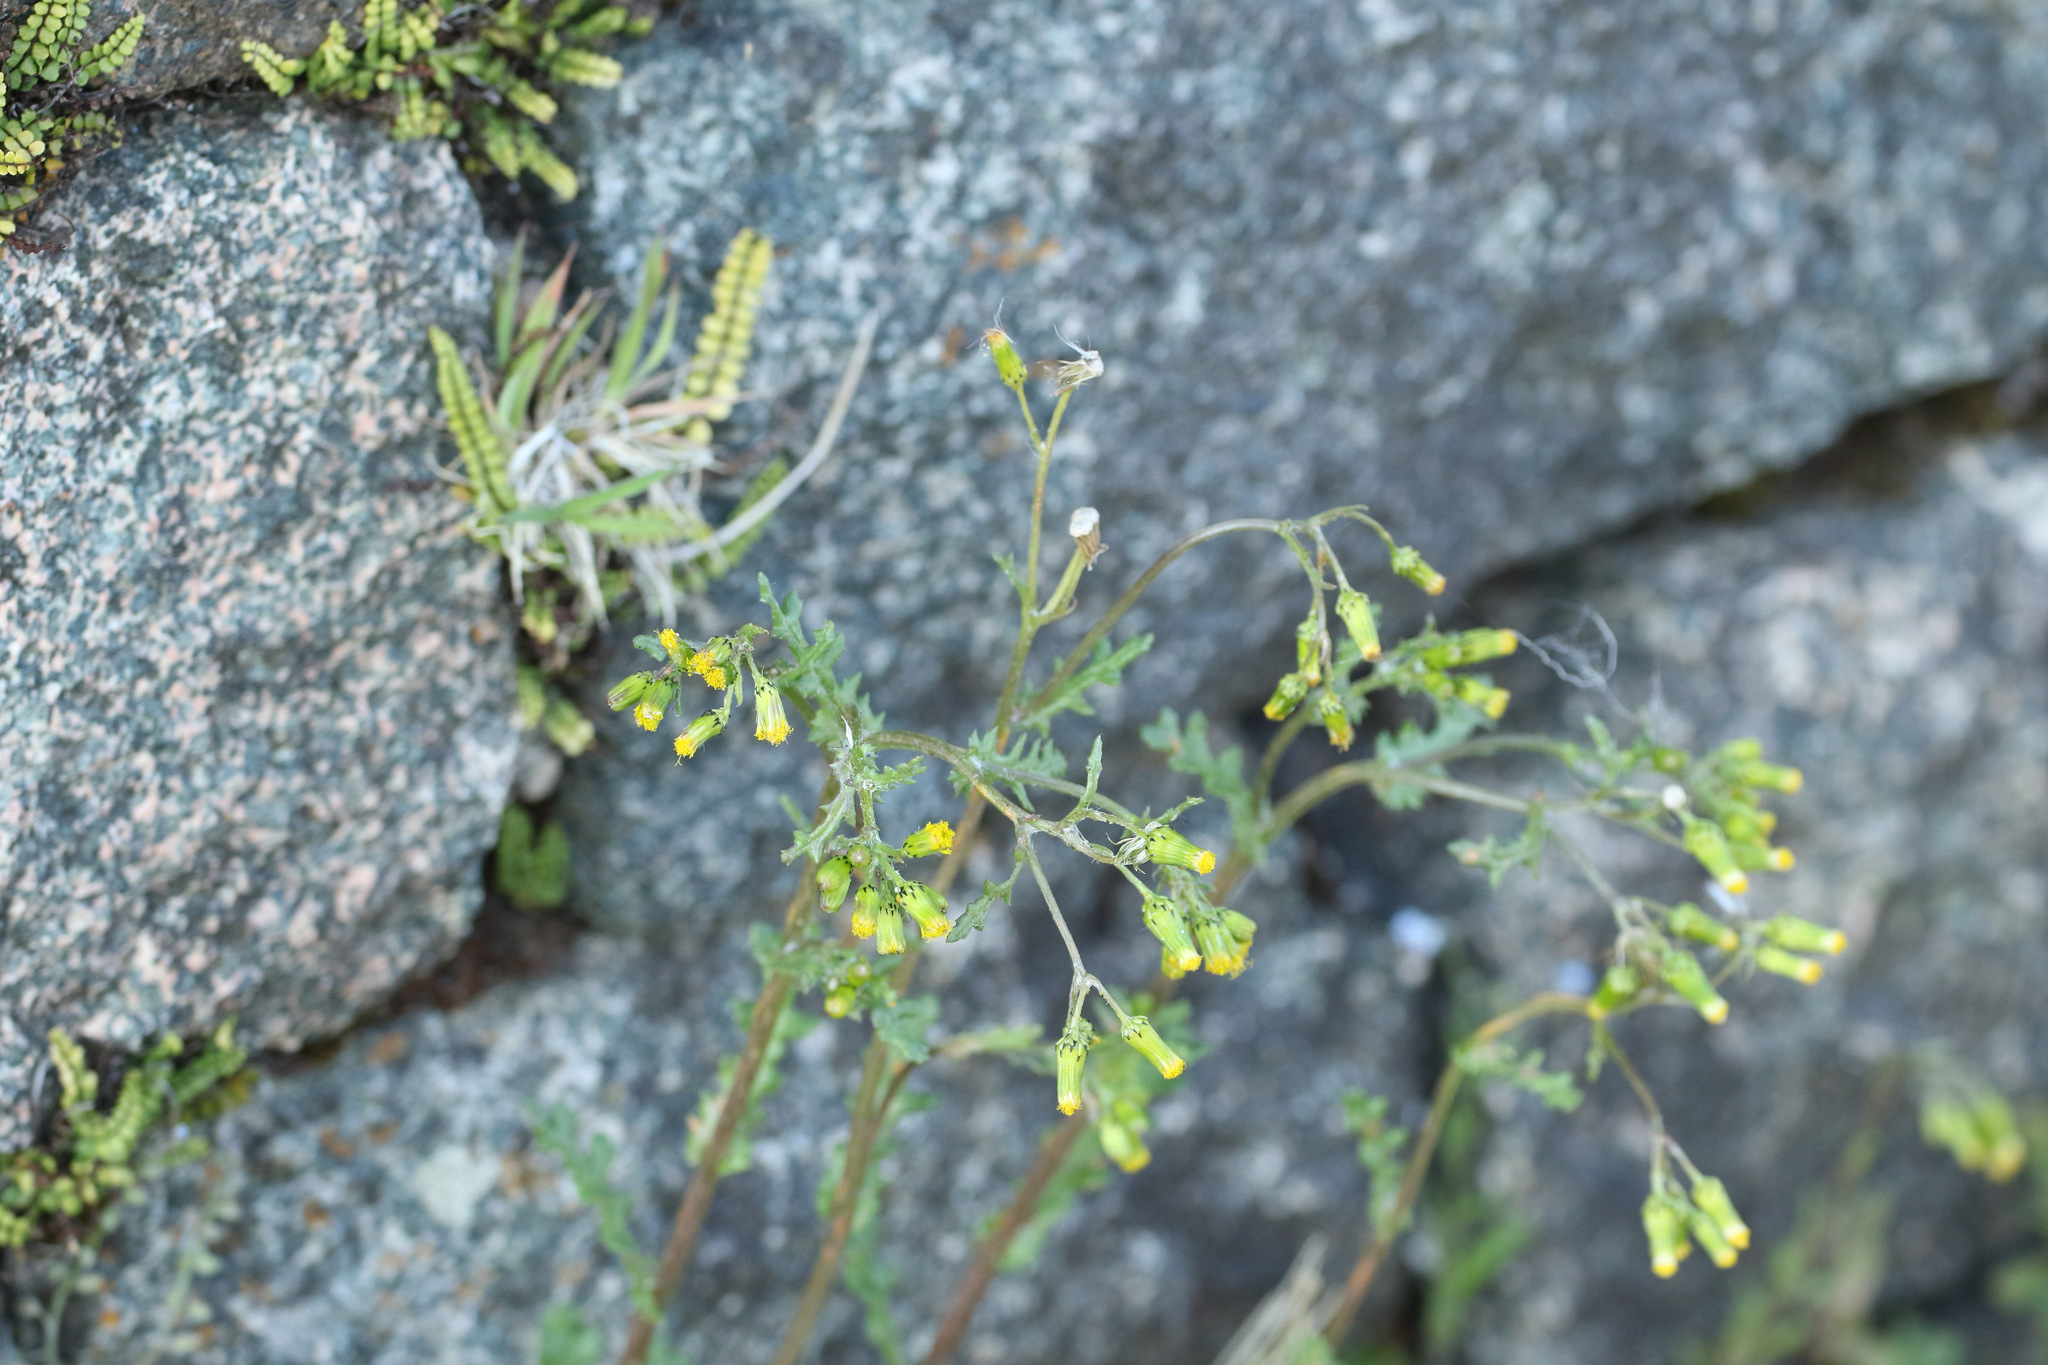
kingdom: Plantae
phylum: Tracheophyta
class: Magnoliopsida
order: Asterales
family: Asteraceae
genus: Senecio
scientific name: Senecio vulgaris
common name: Old-man-in-the-spring
